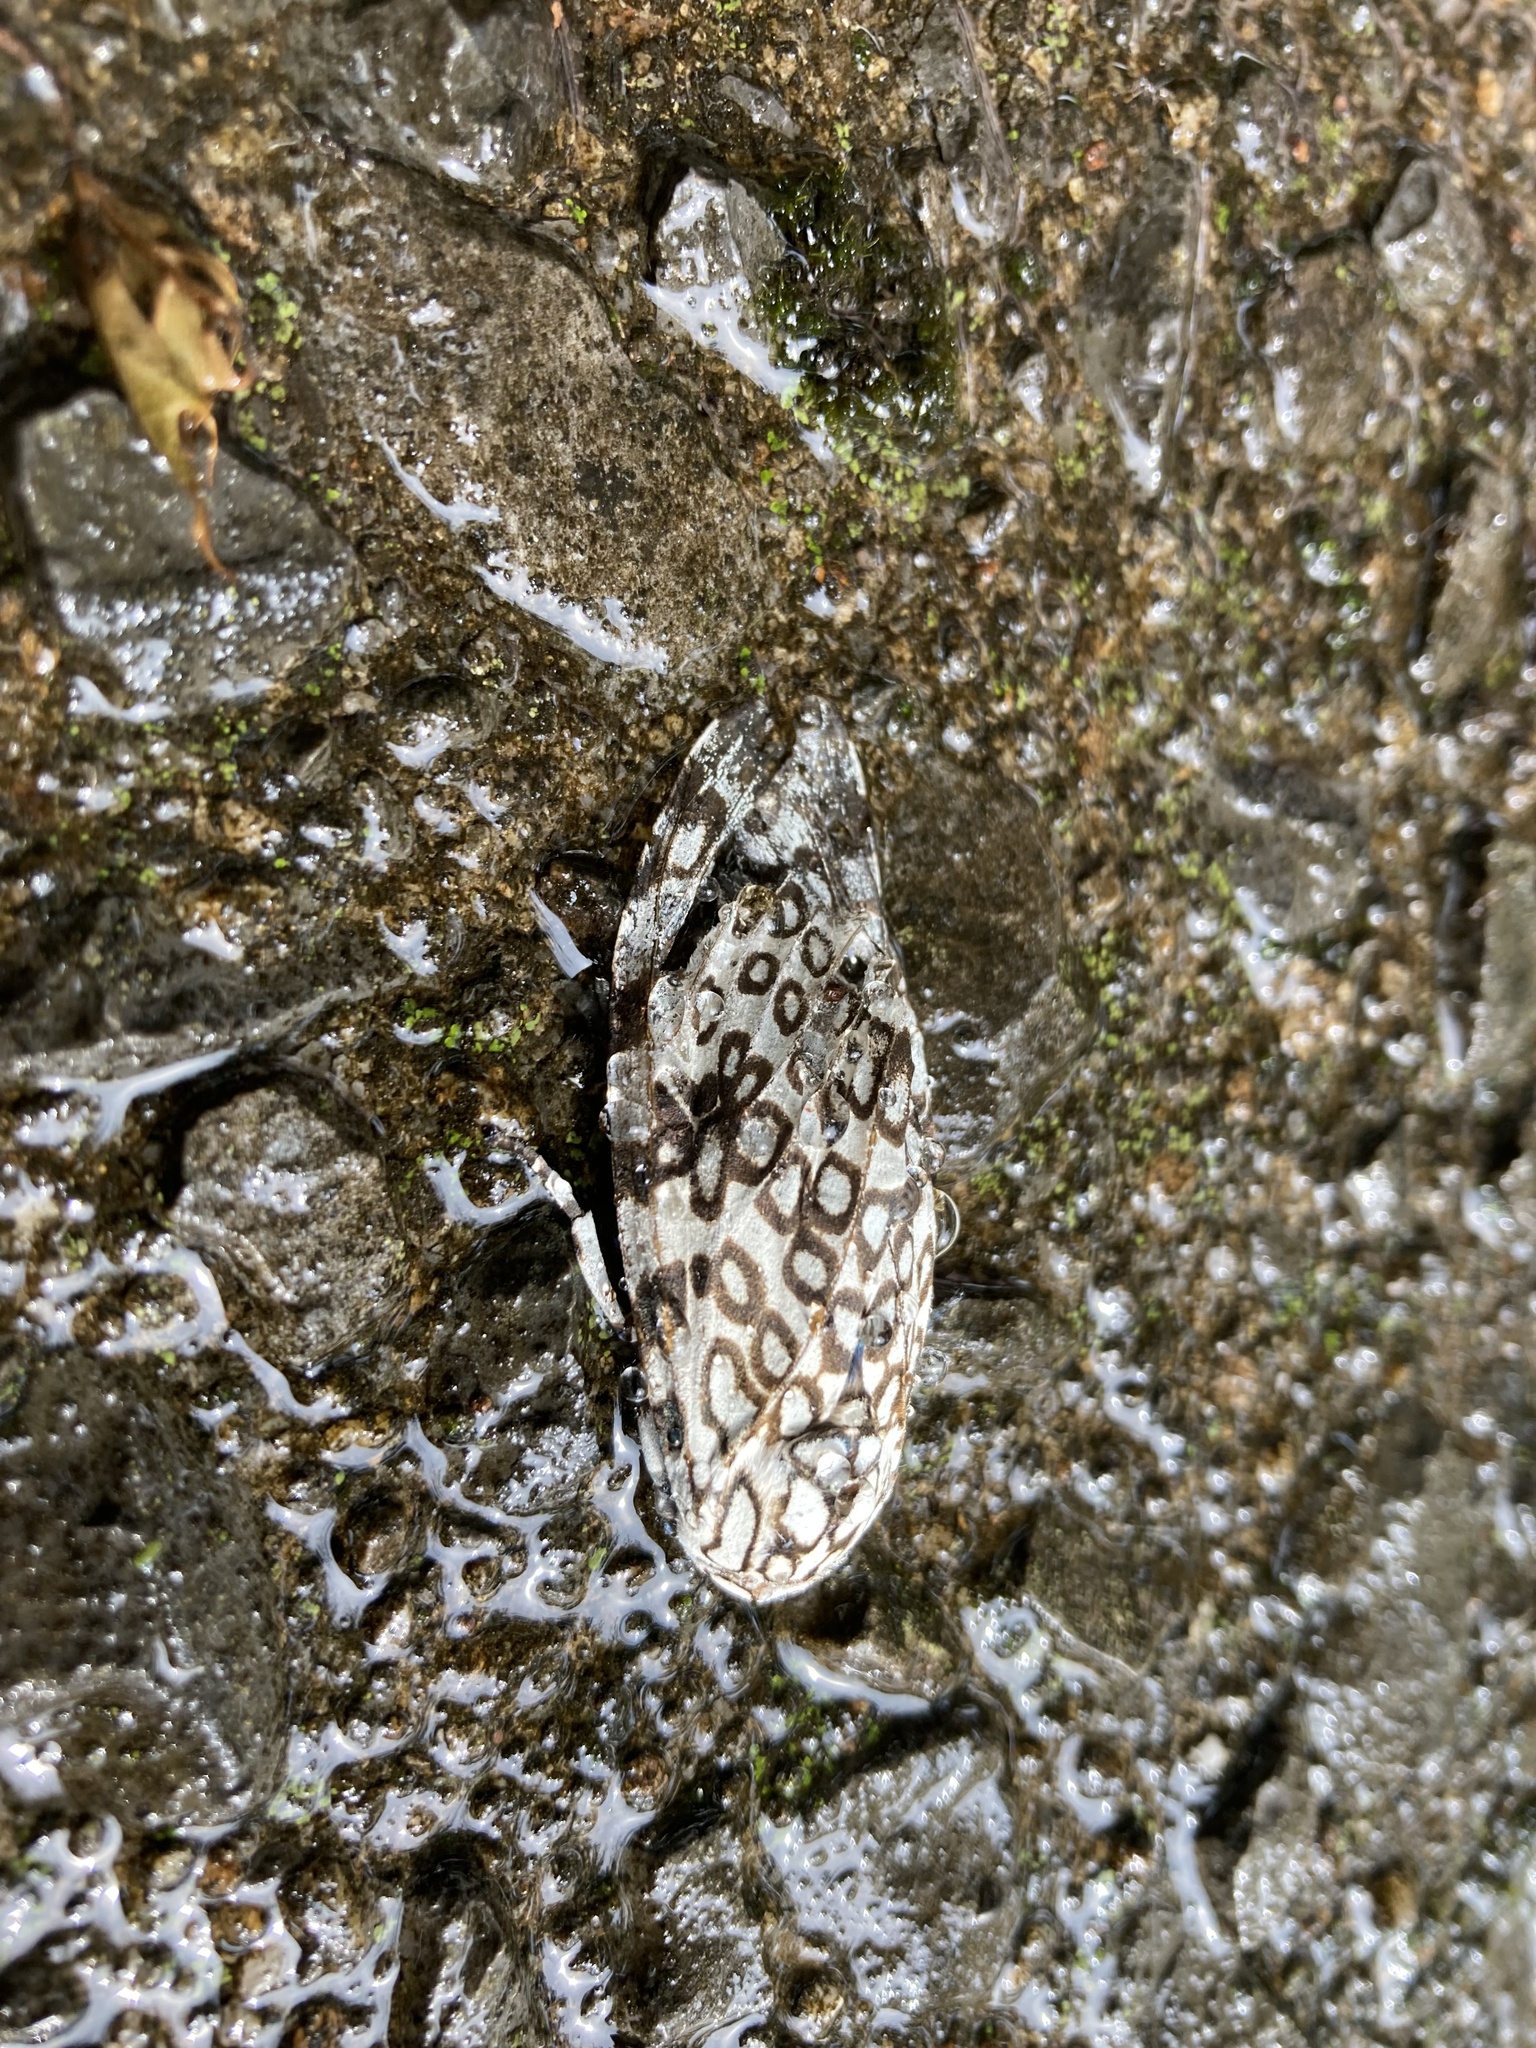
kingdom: Animalia
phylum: Arthropoda
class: Insecta
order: Lepidoptera
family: Erebidae
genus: Hypercompe
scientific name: Hypercompe scribonia
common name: Giant leopard moth
